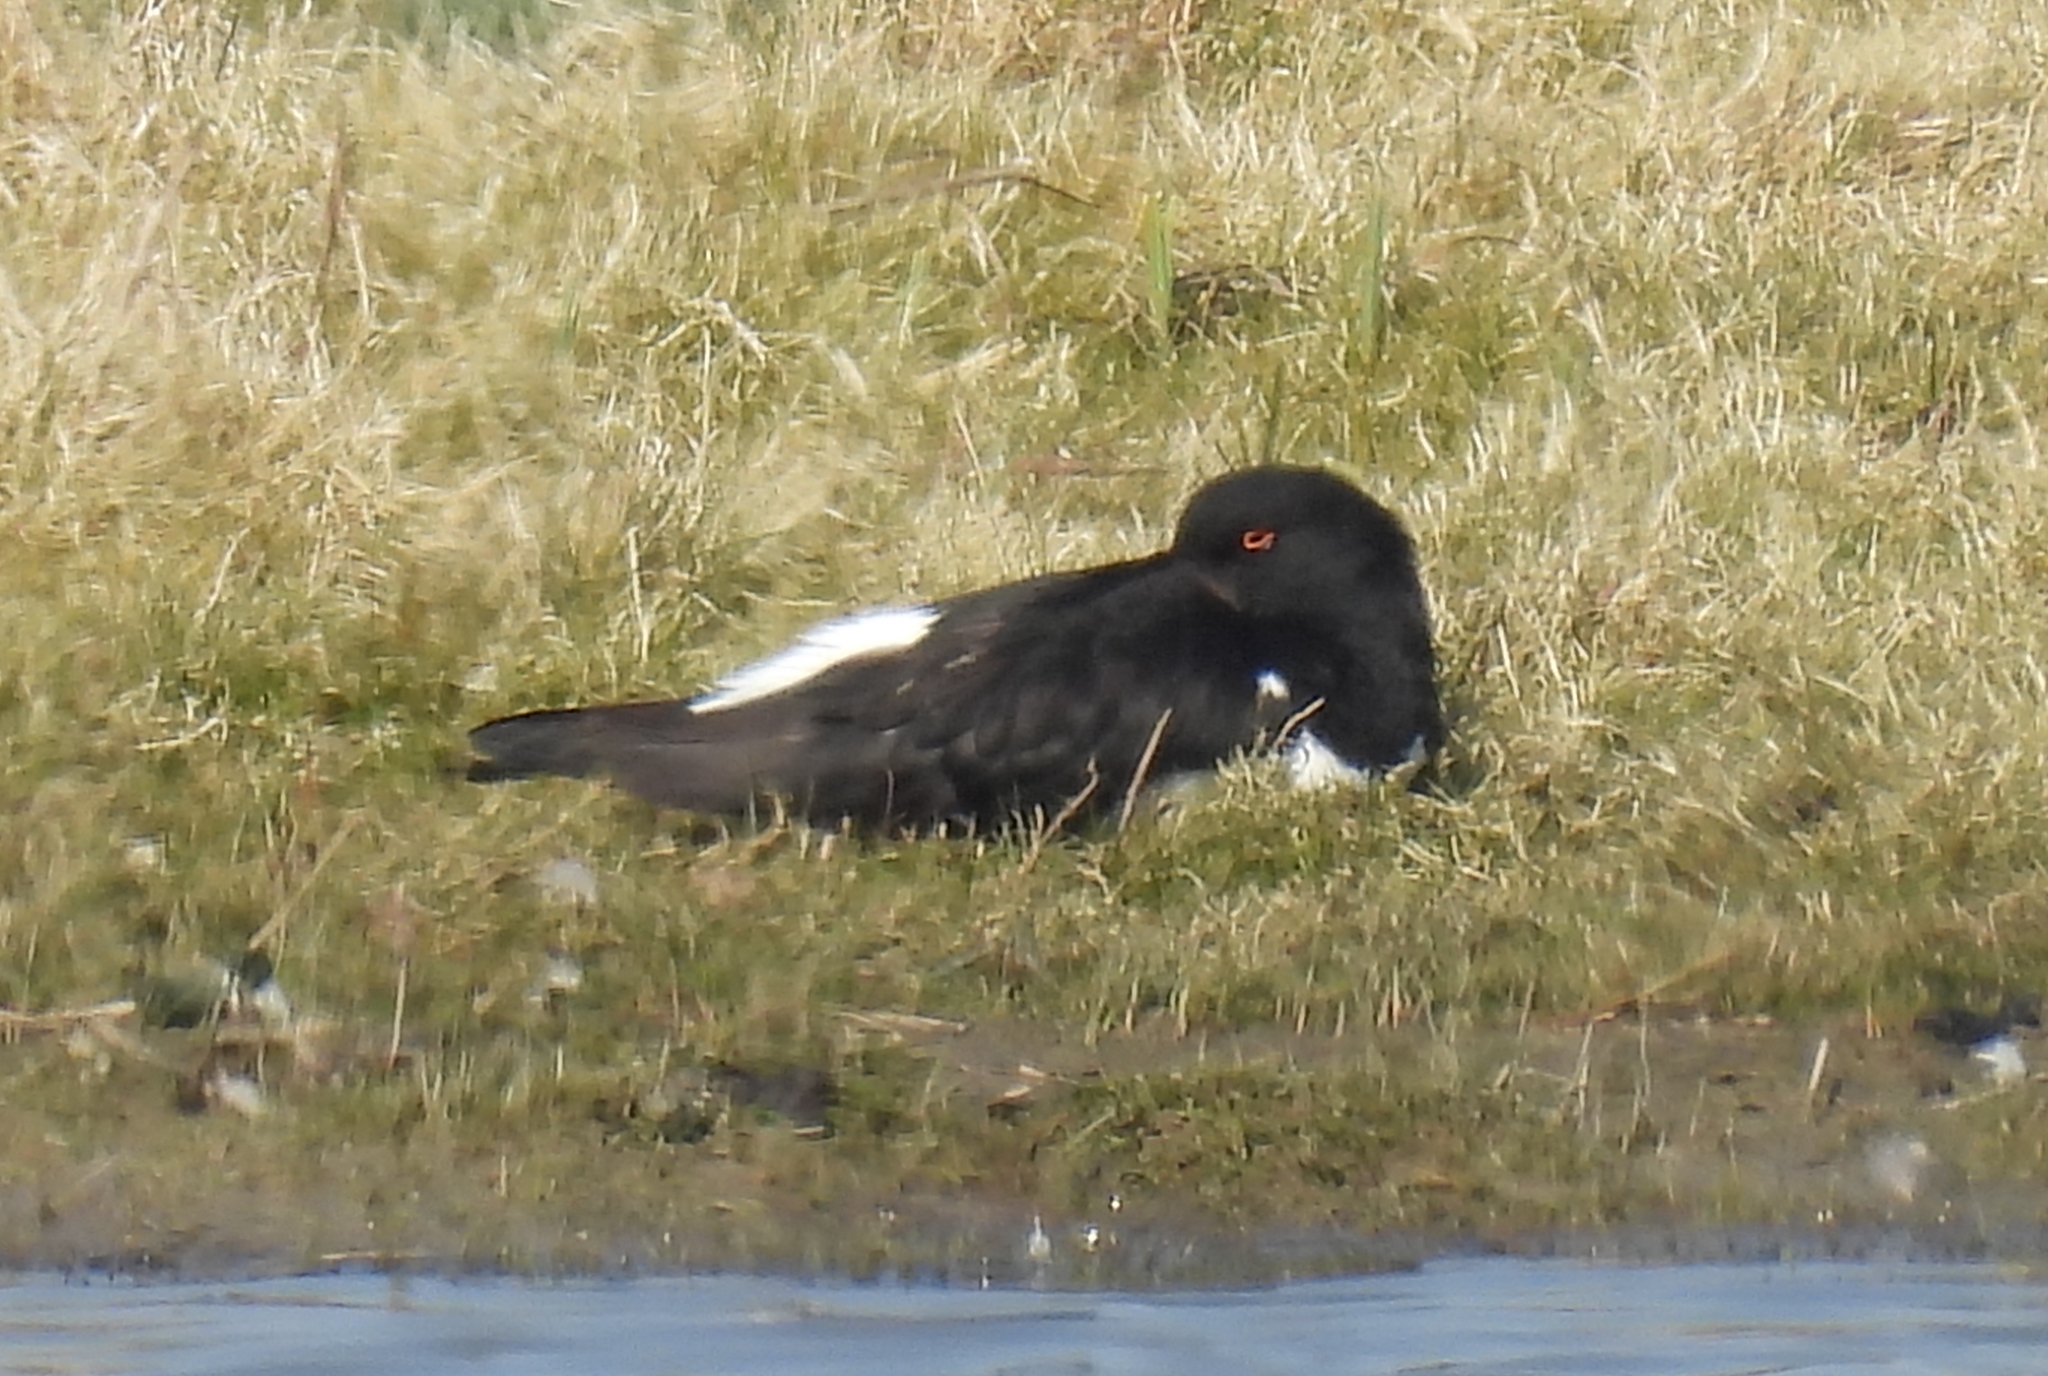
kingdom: Animalia
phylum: Chordata
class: Aves
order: Charadriiformes
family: Haematopodidae
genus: Haematopus
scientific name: Haematopus ostralegus
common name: Eurasian oystercatcher
